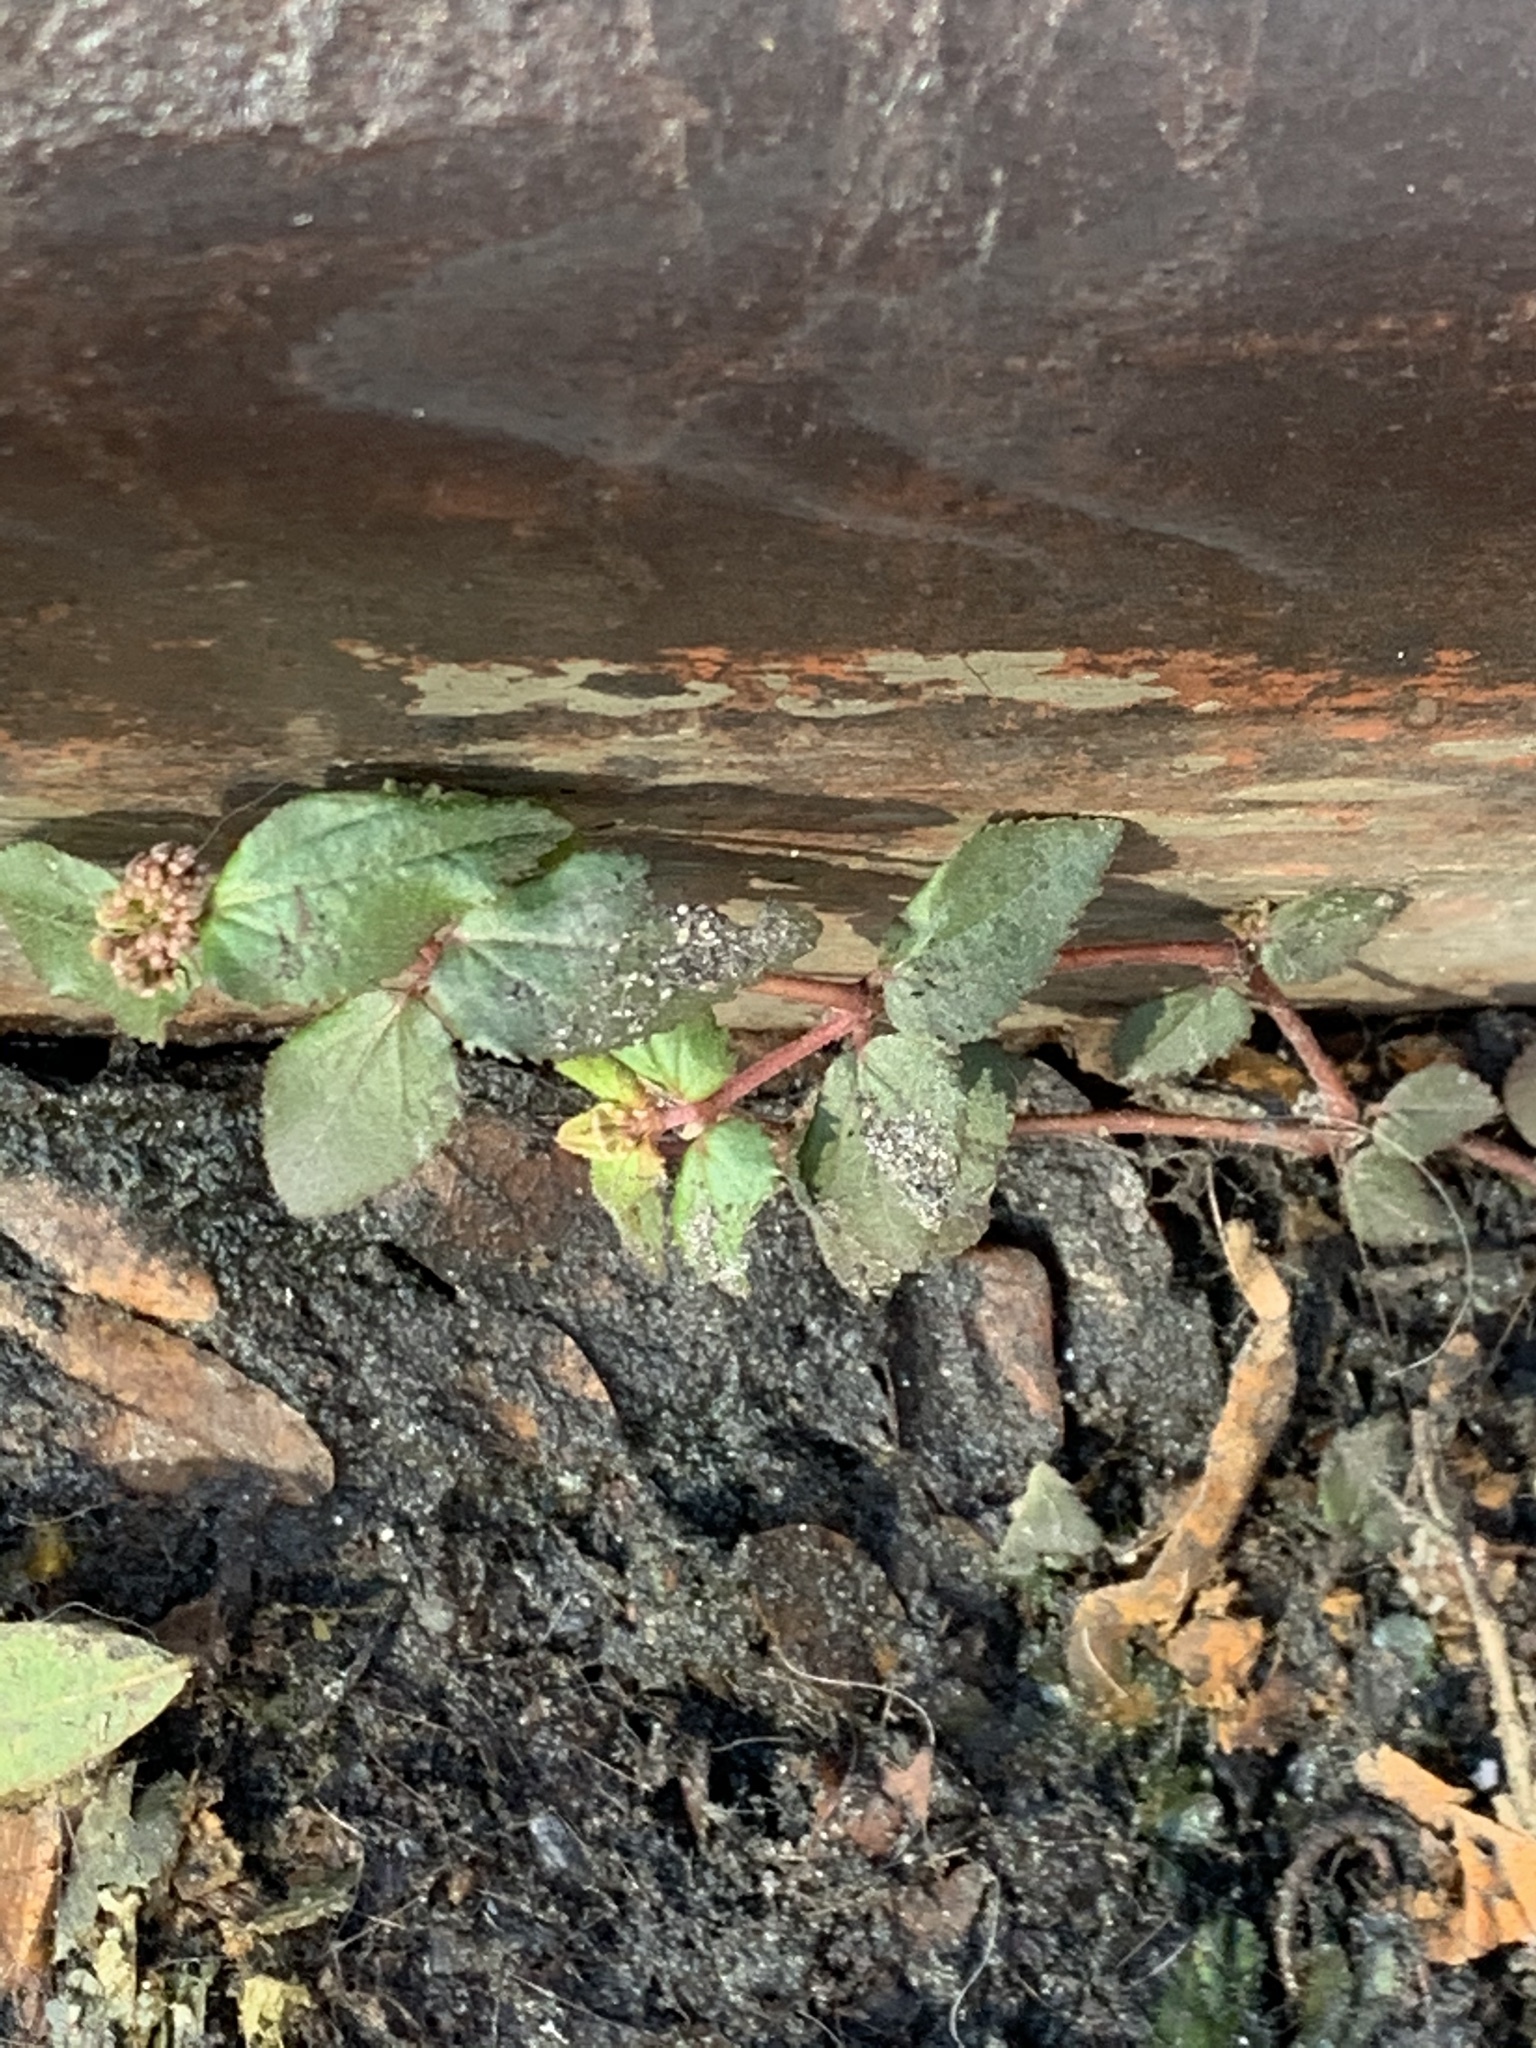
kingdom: Plantae
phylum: Tracheophyta
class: Magnoliopsida
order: Malpighiales
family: Euphorbiaceae
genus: Euphorbia
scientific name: Euphorbia ophthalmica
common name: Florida hammock sandmat
